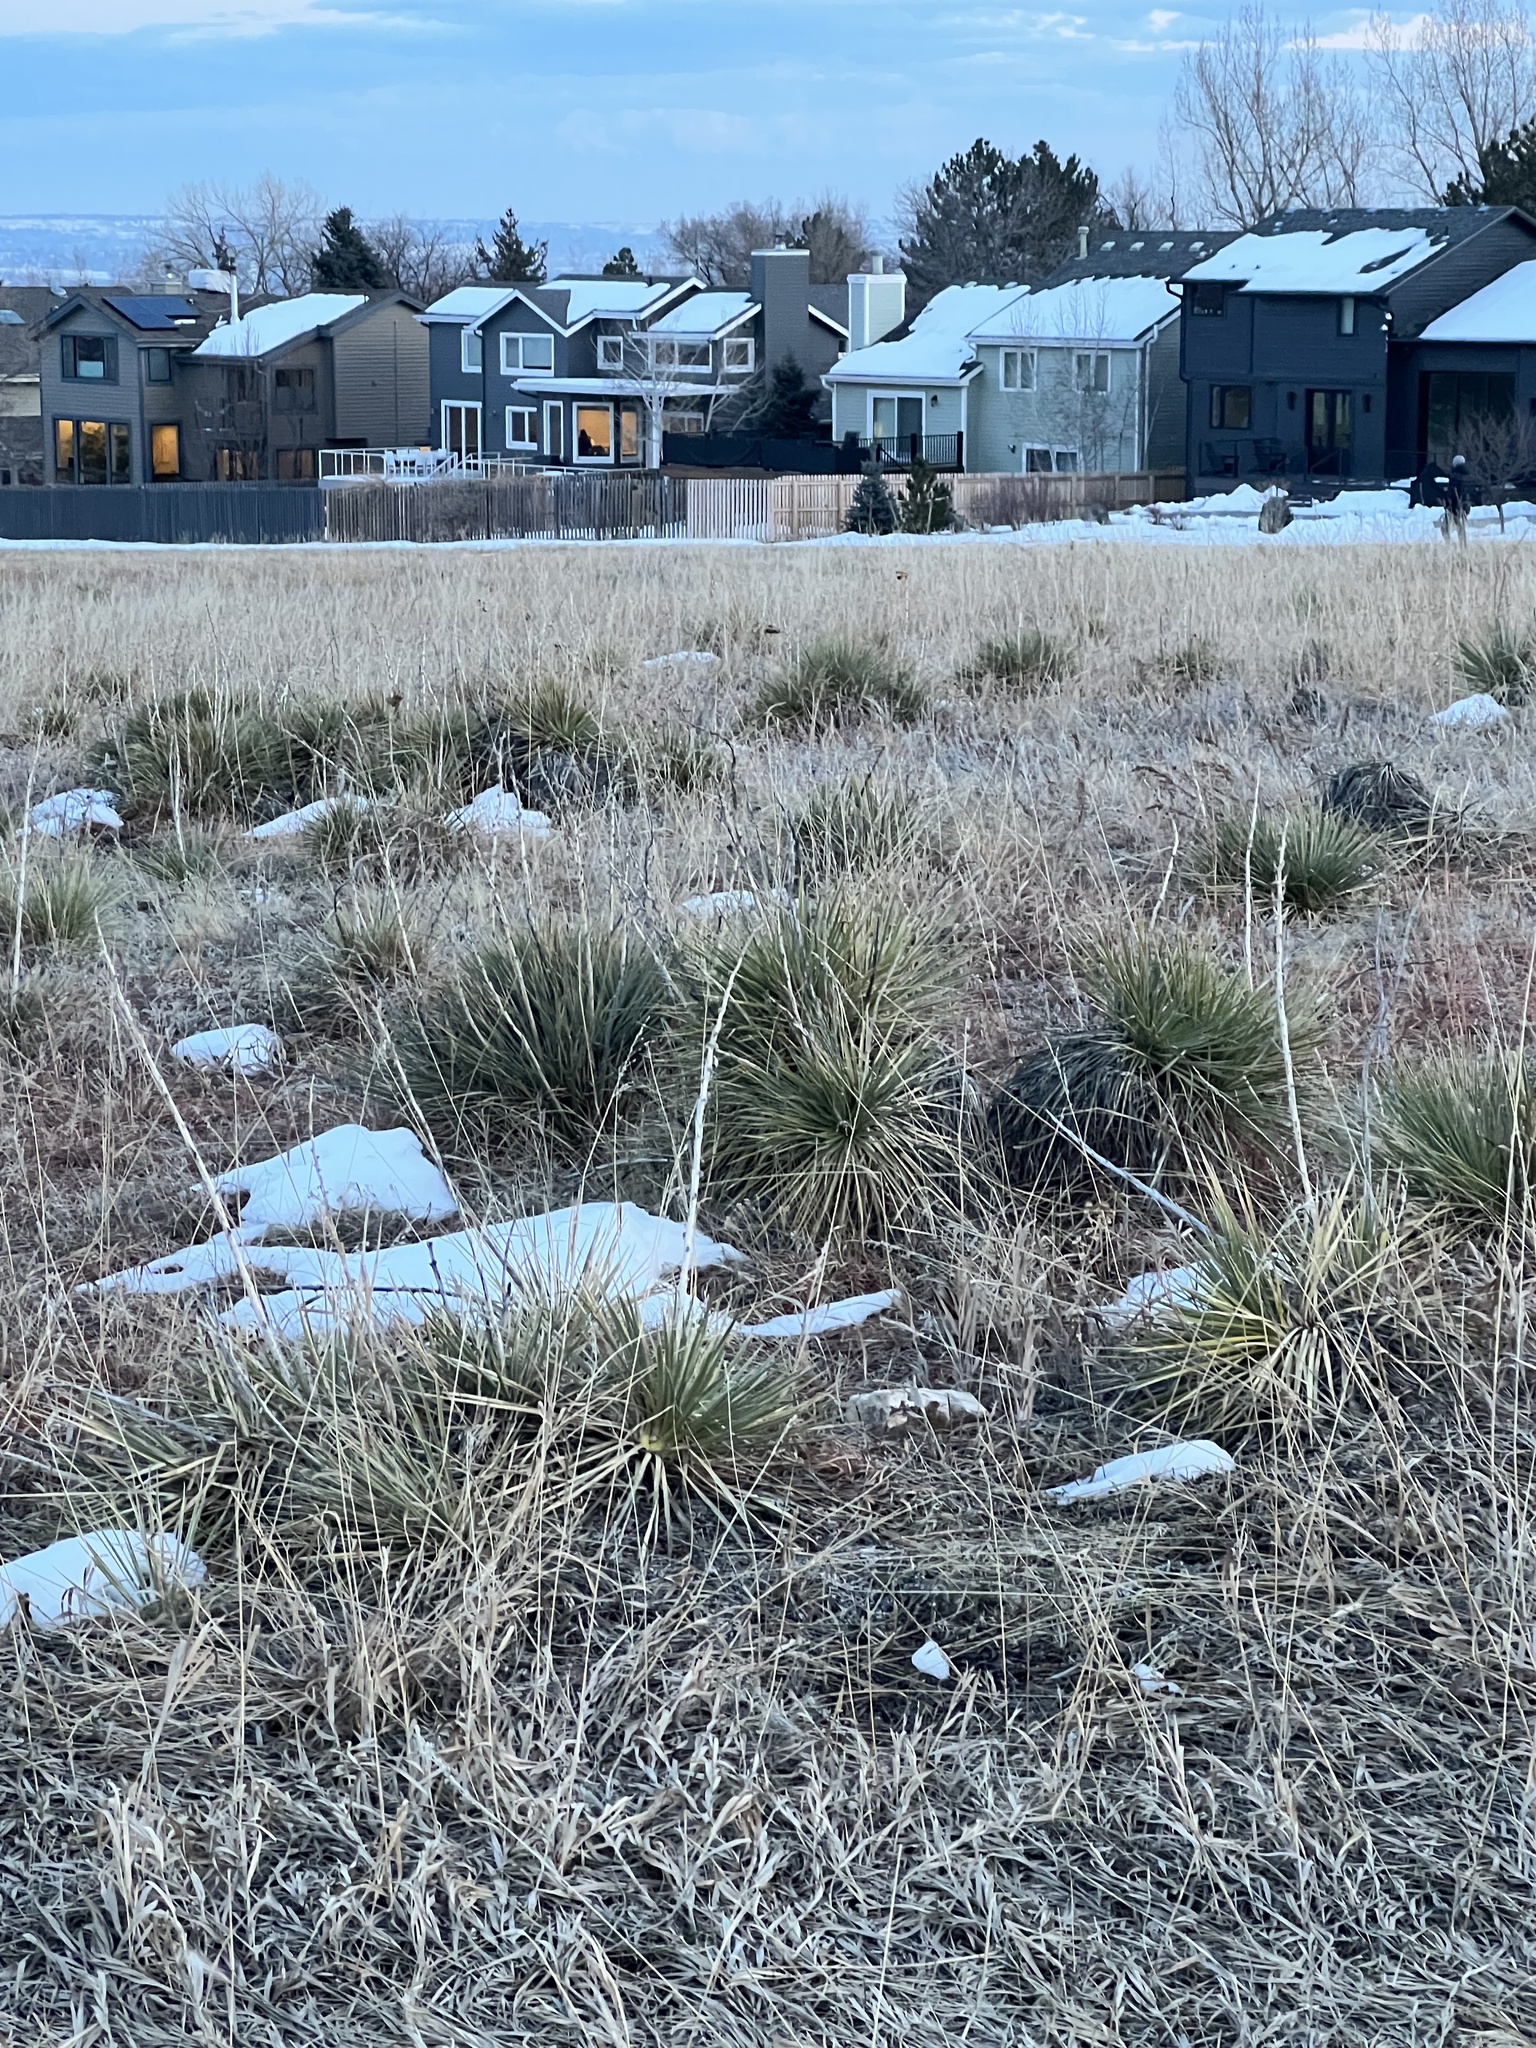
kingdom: Plantae
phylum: Tracheophyta
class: Liliopsida
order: Asparagales
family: Asparagaceae
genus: Yucca
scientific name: Yucca glauca
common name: Great plains yucca
